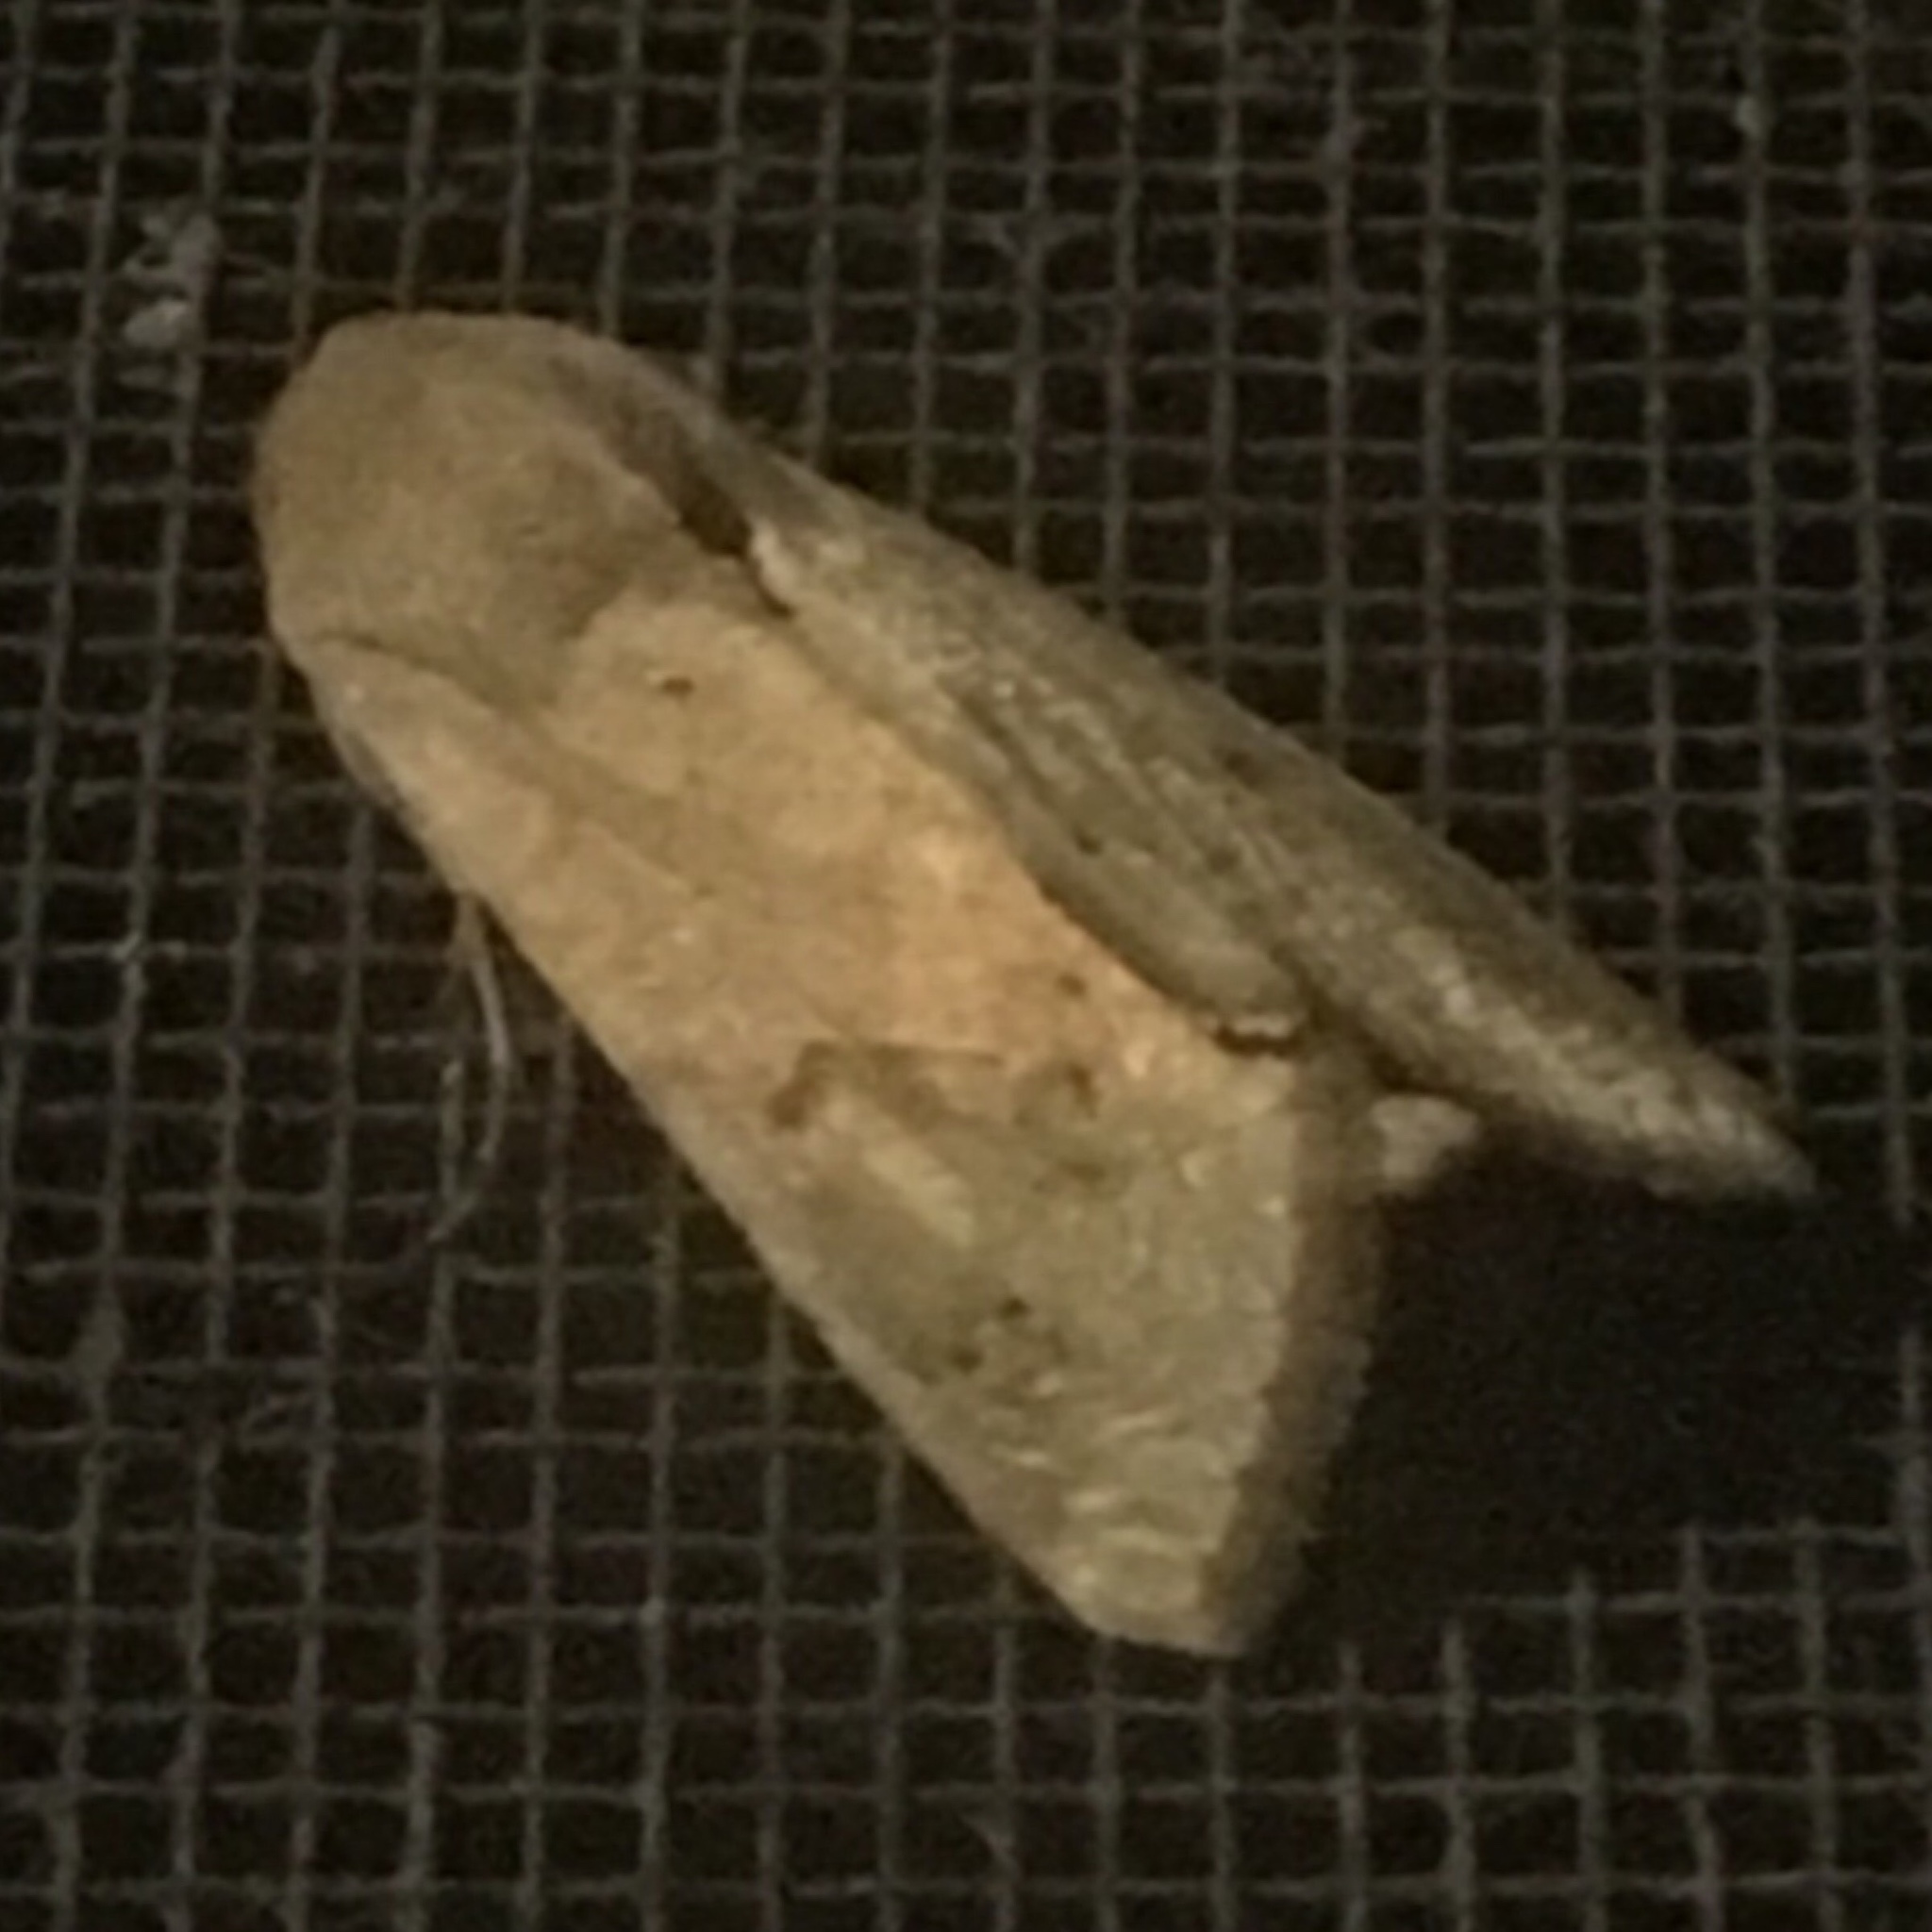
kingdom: Animalia
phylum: Arthropoda
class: Insecta
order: Lepidoptera
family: Noctuidae
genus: Helicoverpa
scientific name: Helicoverpa zea
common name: Bollworm
